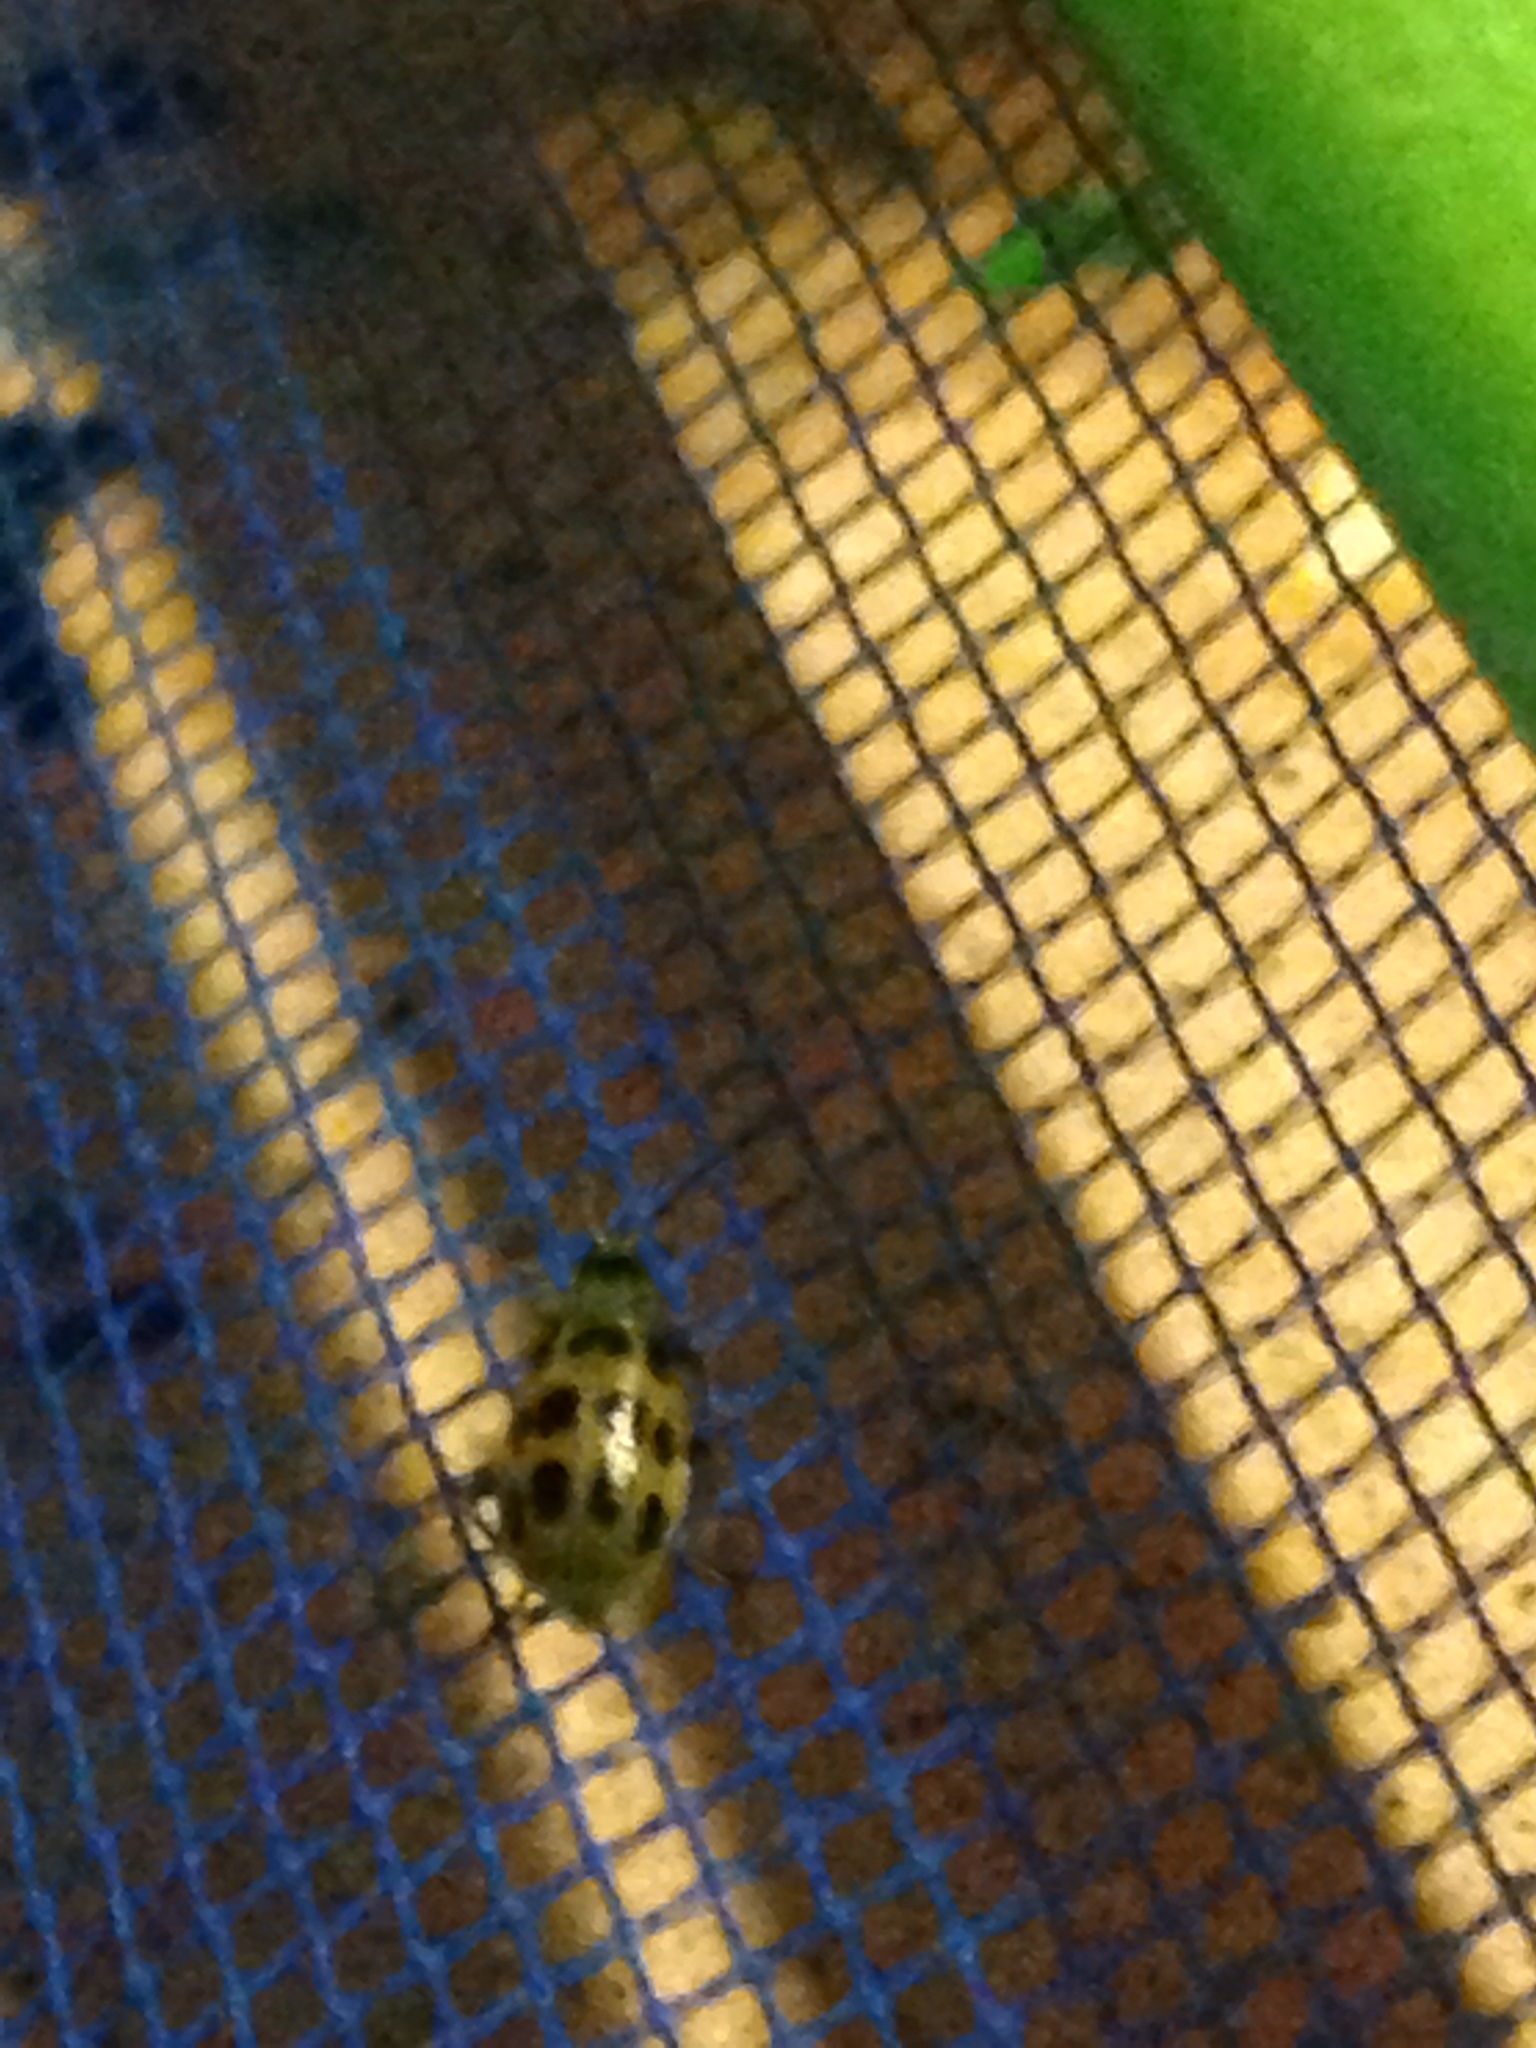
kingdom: Animalia
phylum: Arthropoda
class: Insecta
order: Coleoptera
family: Chrysomelidae
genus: Diabrotica
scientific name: Diabrotica undecimpunctata
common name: Spotted cucumber beetle
